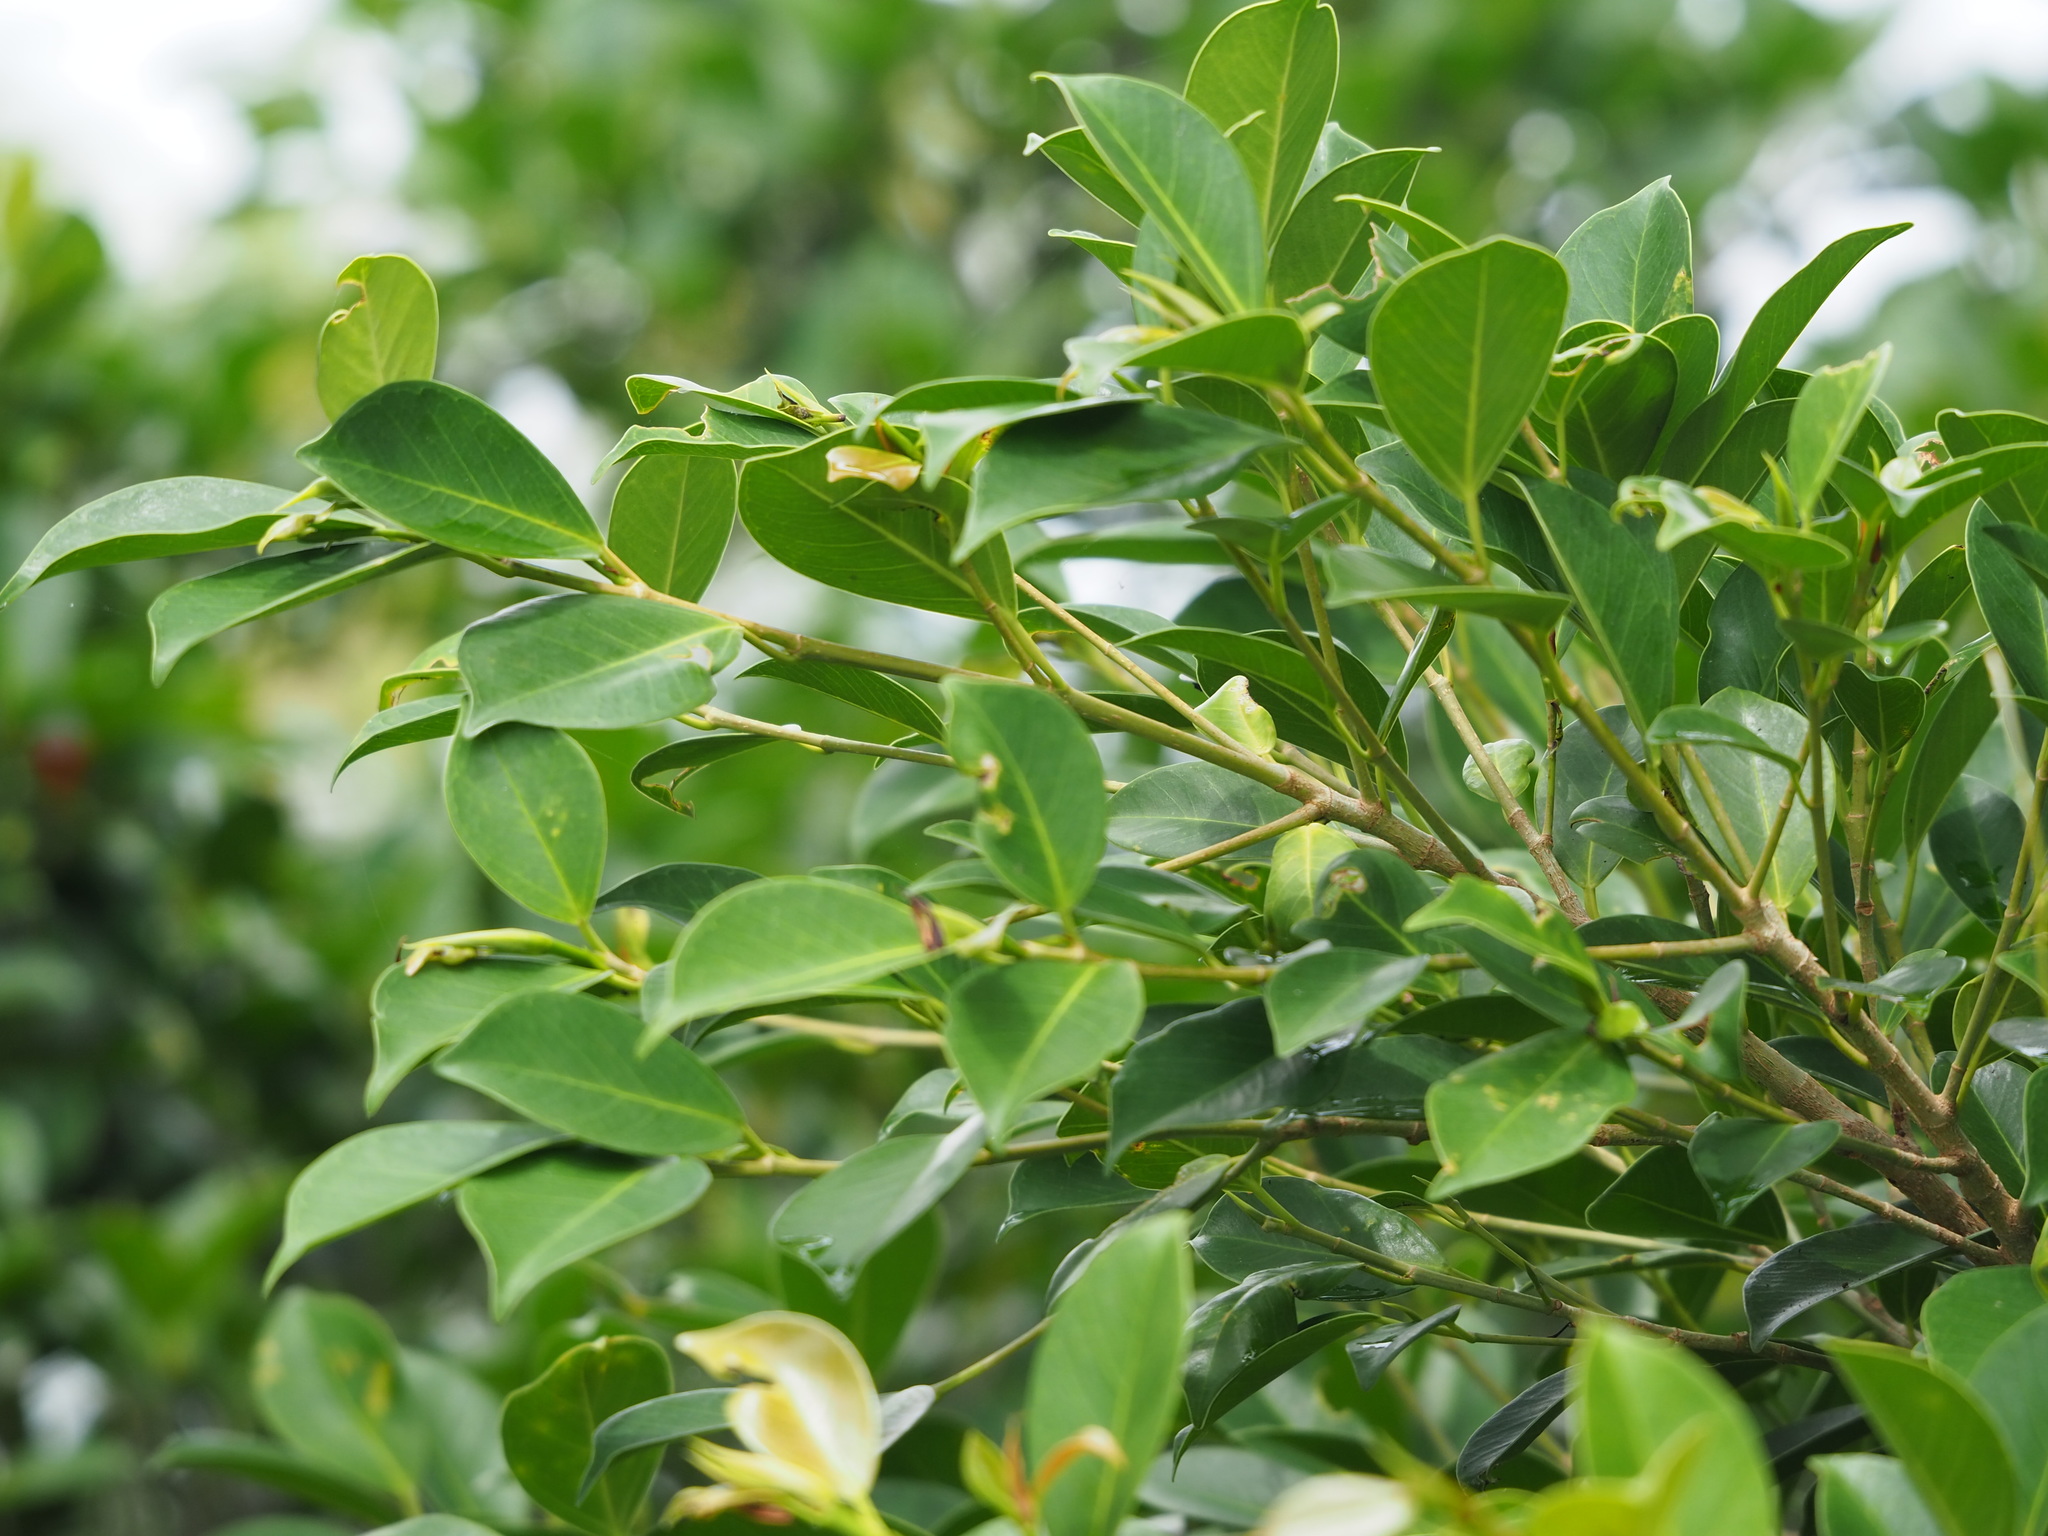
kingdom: Plantae
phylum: Tracheophyta
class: Magnoliopsida
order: Rosales
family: Moraceae
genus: Ficus
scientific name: Ficus microcarpa
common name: Chinese banyan
